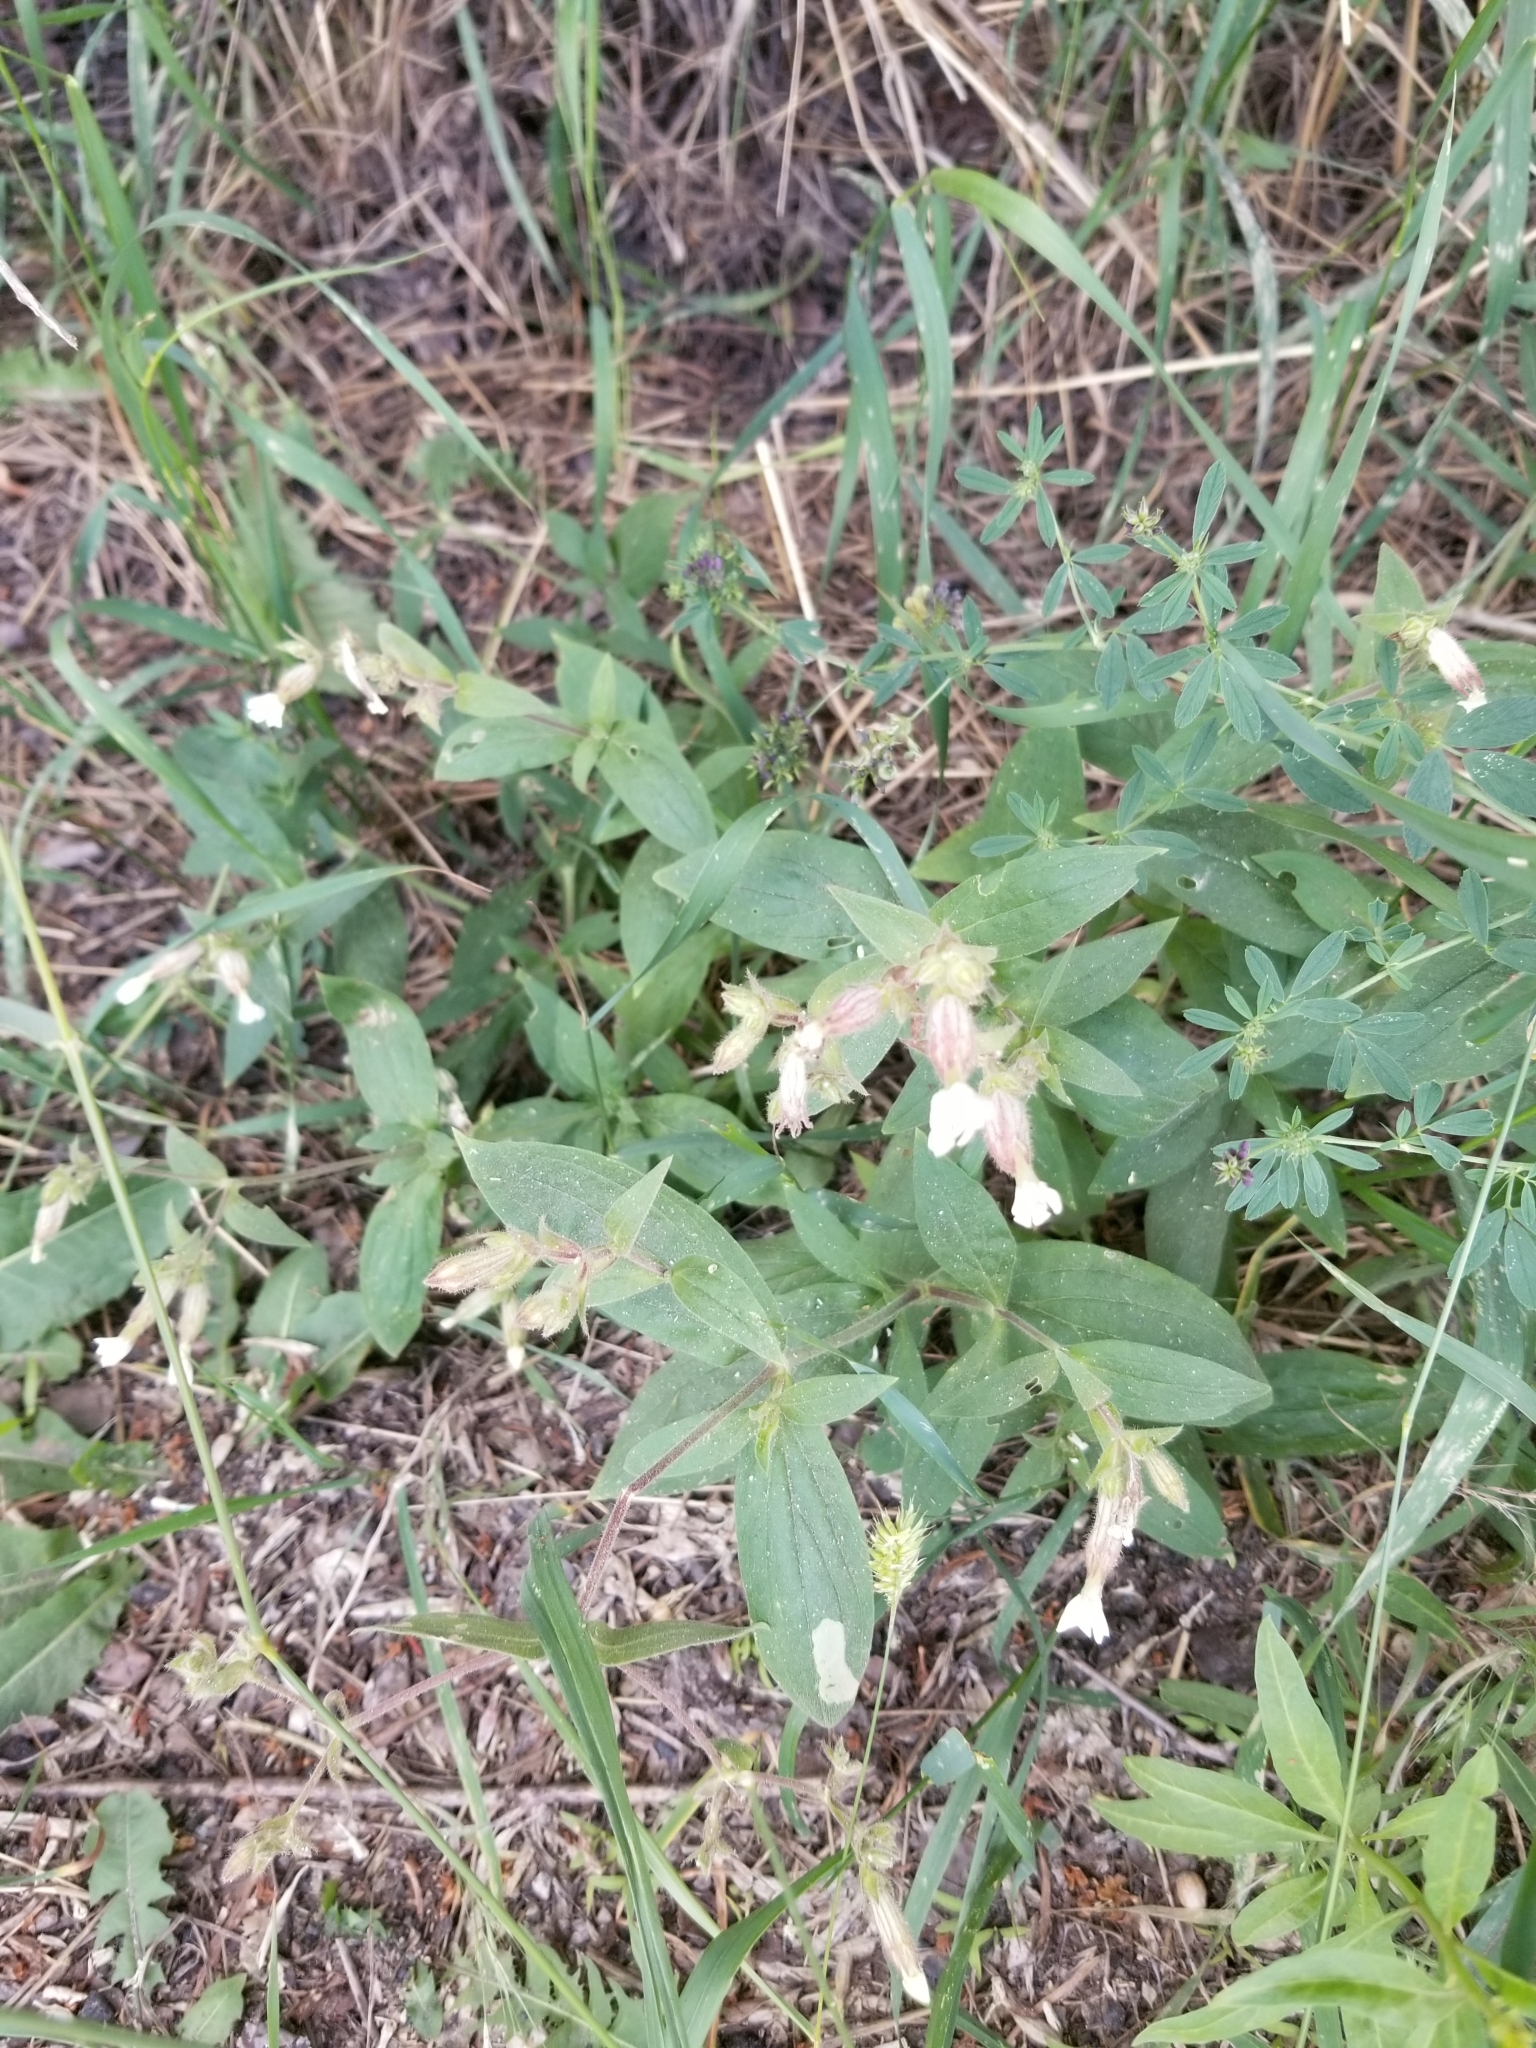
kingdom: Plantae
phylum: Tracheophyta
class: Magnoliopsida
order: Caryophyllales
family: Caryophyllaceae
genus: Silene
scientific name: Silene latifolia
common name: White campion
